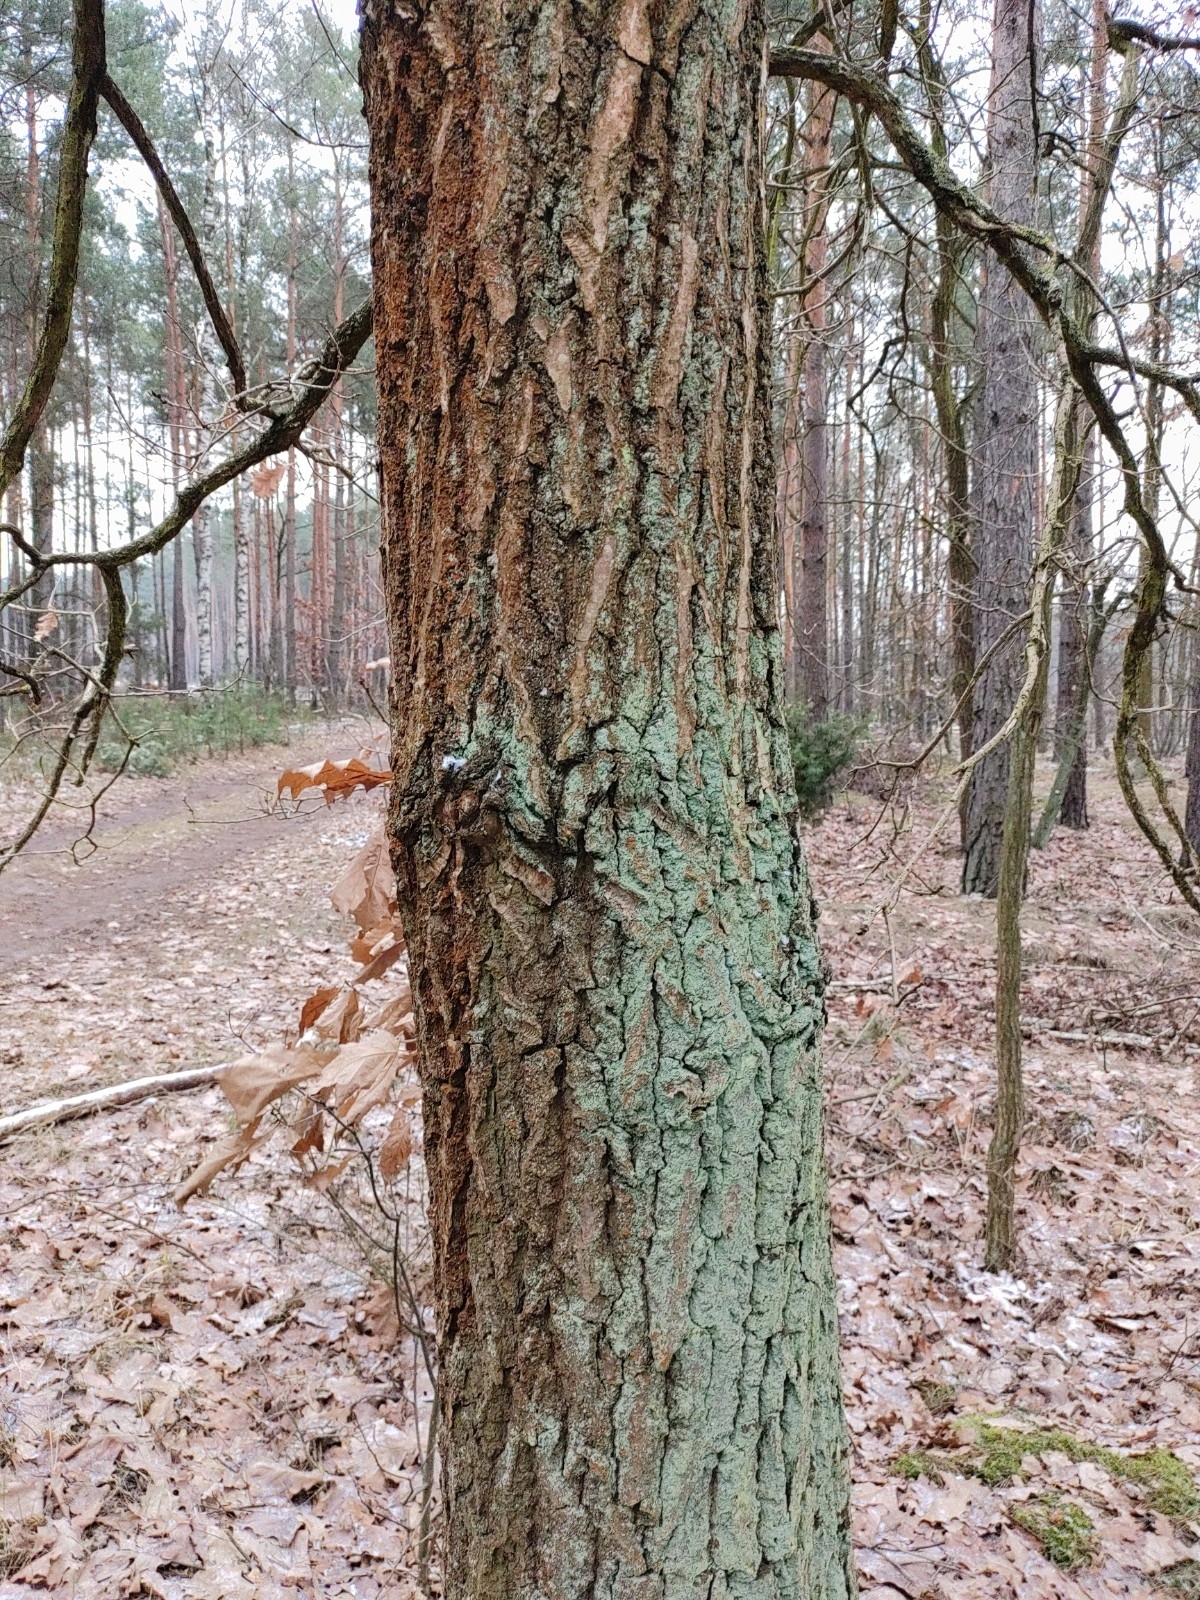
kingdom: Plantae
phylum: Tracheophyta
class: Magnoliopsida
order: Fagales
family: Fagaceae
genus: Quercus
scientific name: Quercus robur
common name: Pedunculate oak
